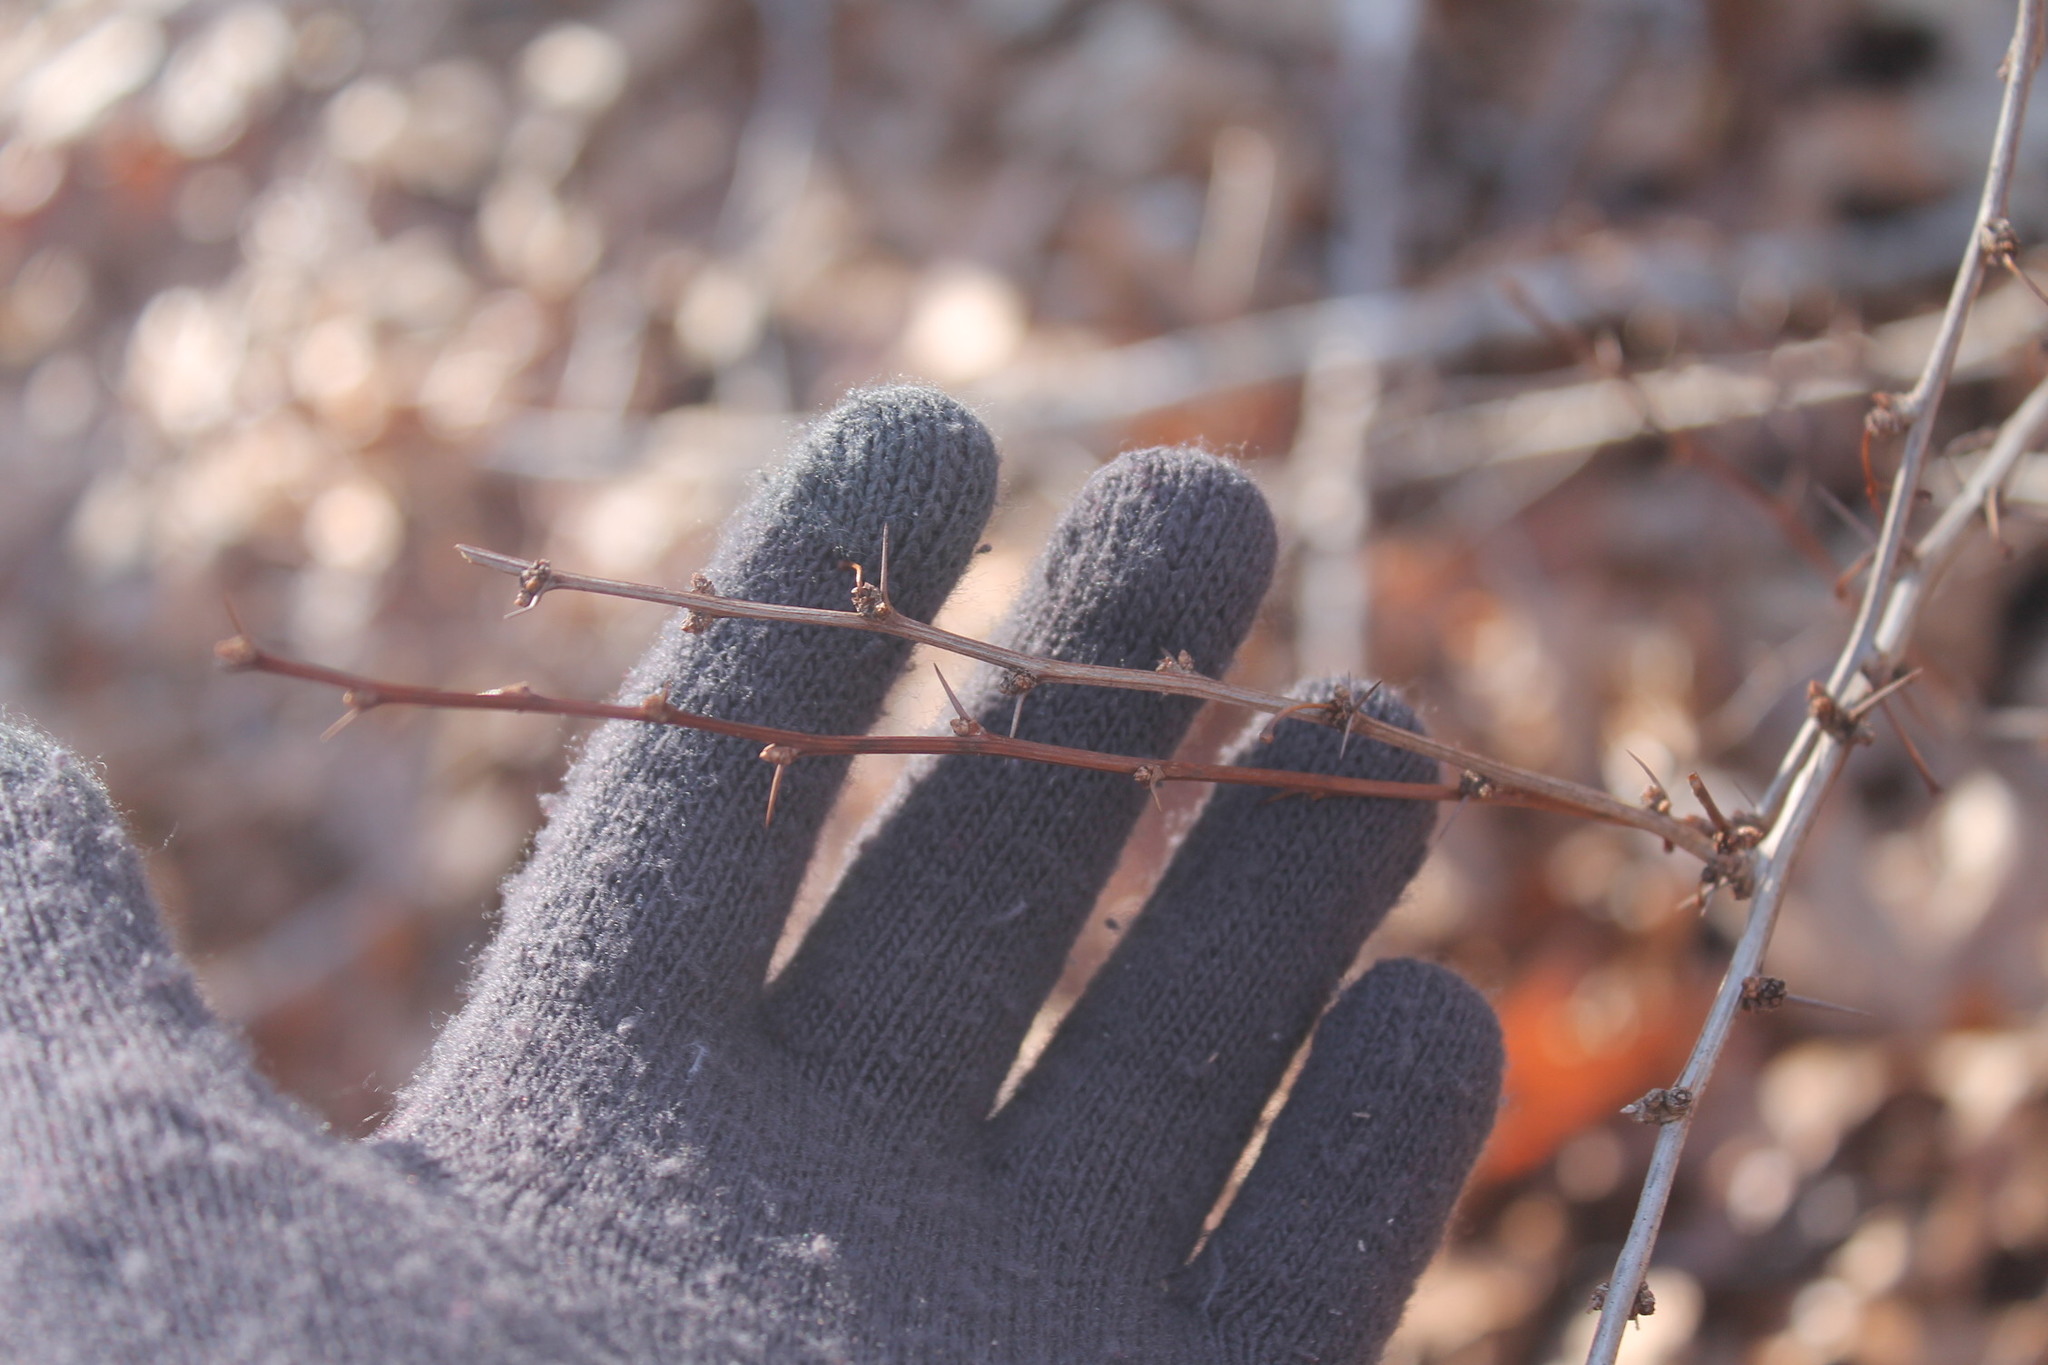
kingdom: Plantae
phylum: Tracheophyta
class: Magnoliopsida
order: Ranunculales
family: Berberidaceae
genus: Berberis
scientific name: Berberis thunbergii
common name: Japanese barberry
